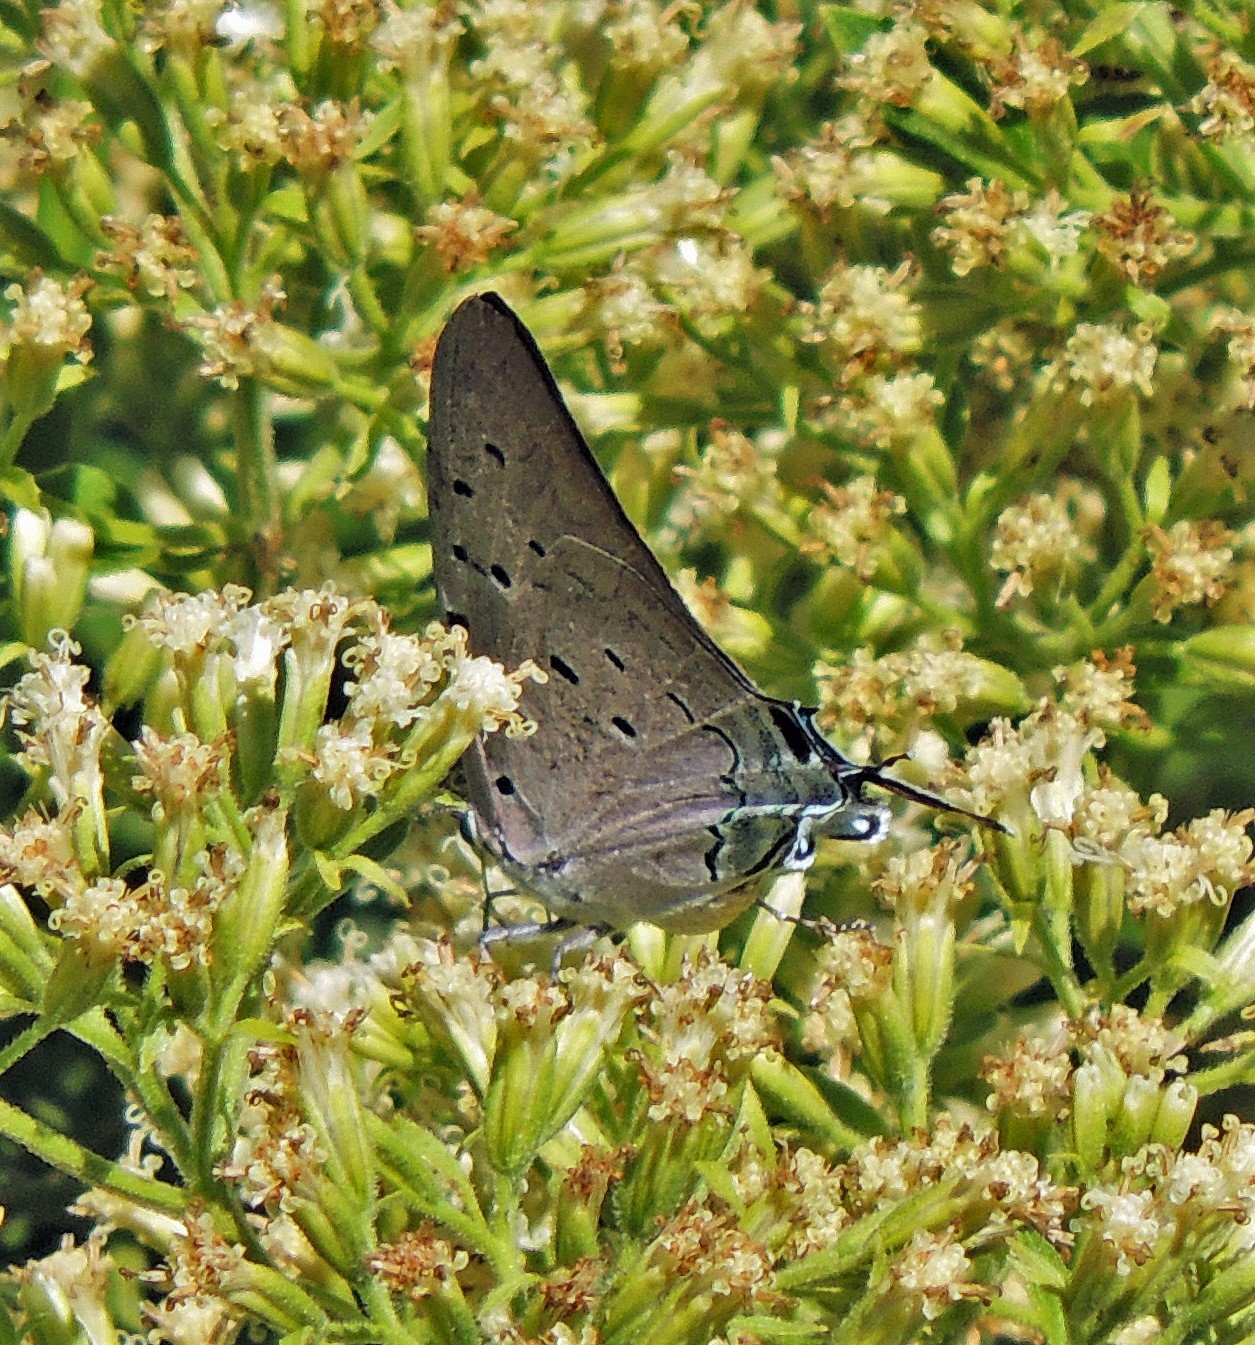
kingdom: Animalia
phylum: Arthropoda
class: Insecta
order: Lepidoptera
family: Lycaenidae
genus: Pseudolycaena
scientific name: Pseudolycaena marsyas
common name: Marsyas hairstreak
